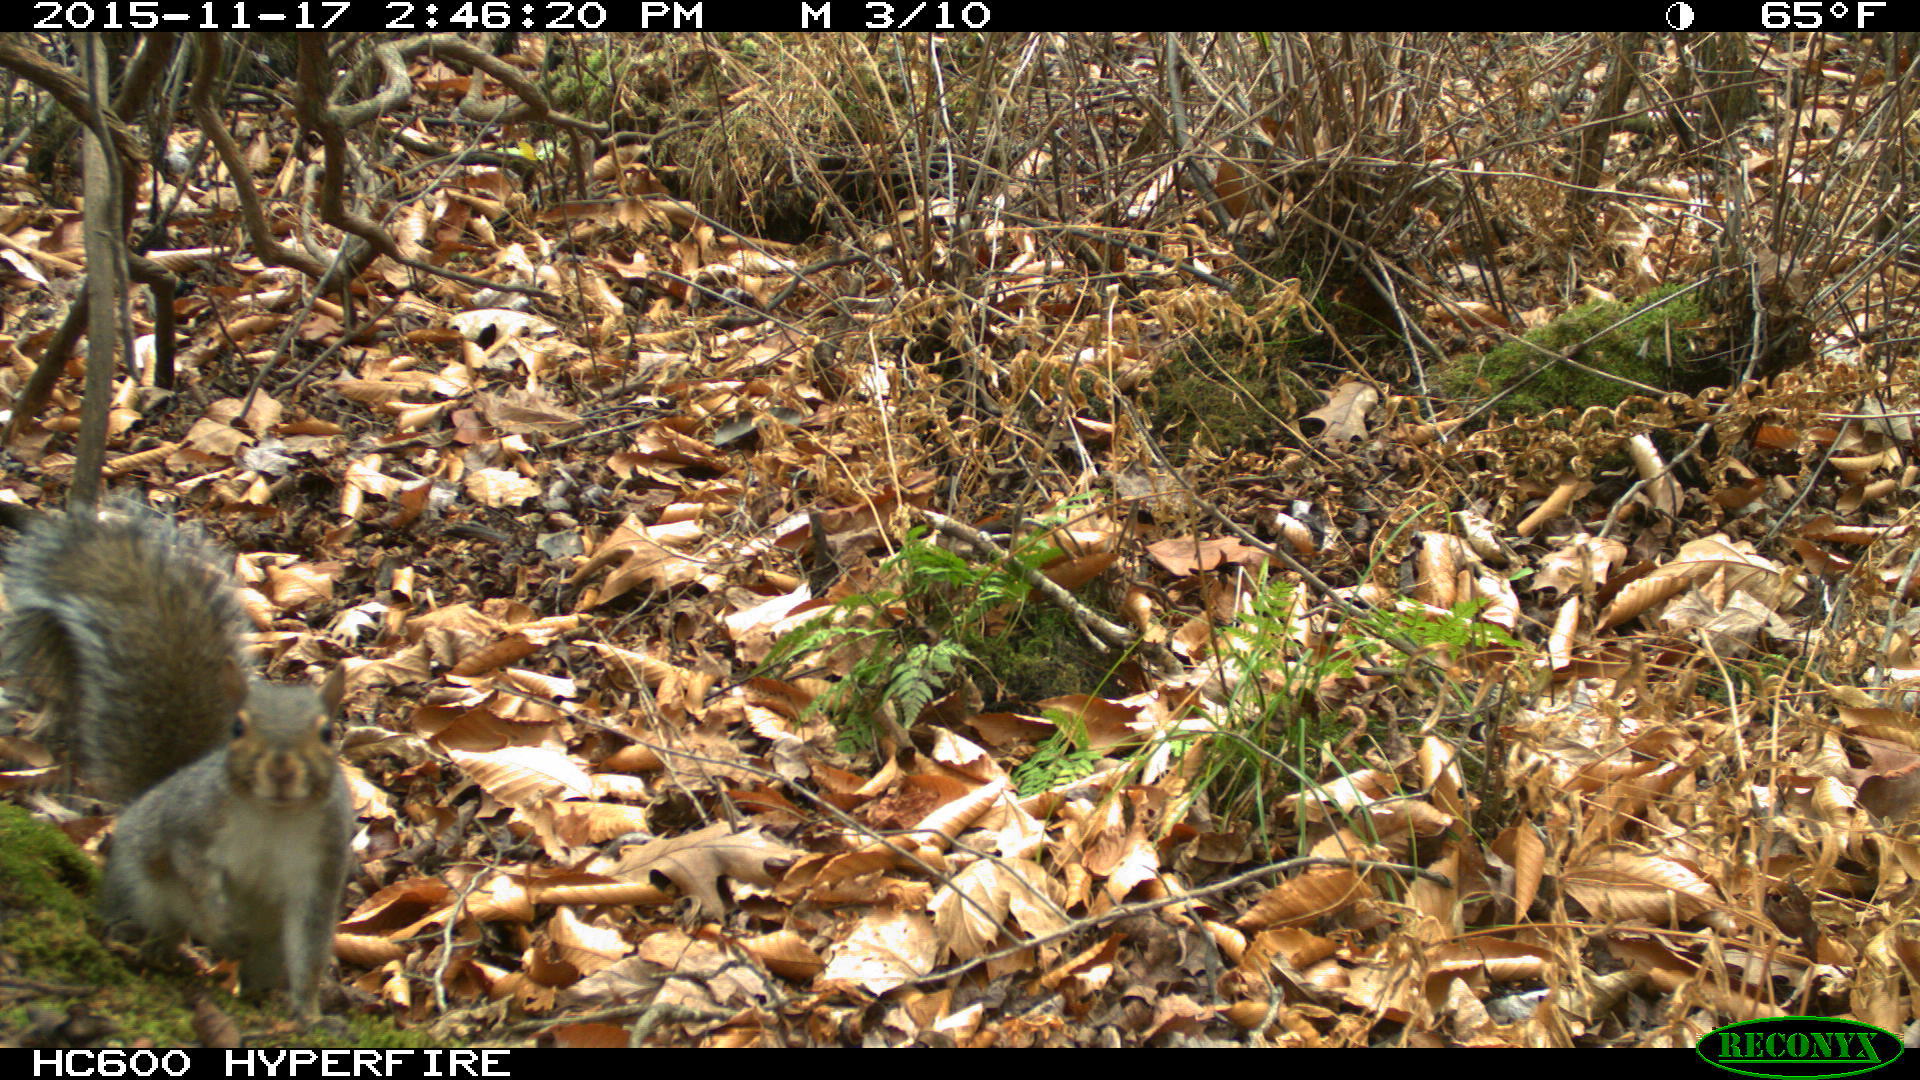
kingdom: Animalia
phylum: Chordata
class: Mammalia
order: Rodentia
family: Sciuridae
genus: Sciurus
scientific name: Sciurus carolinensis
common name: Eastern gray squirrel
